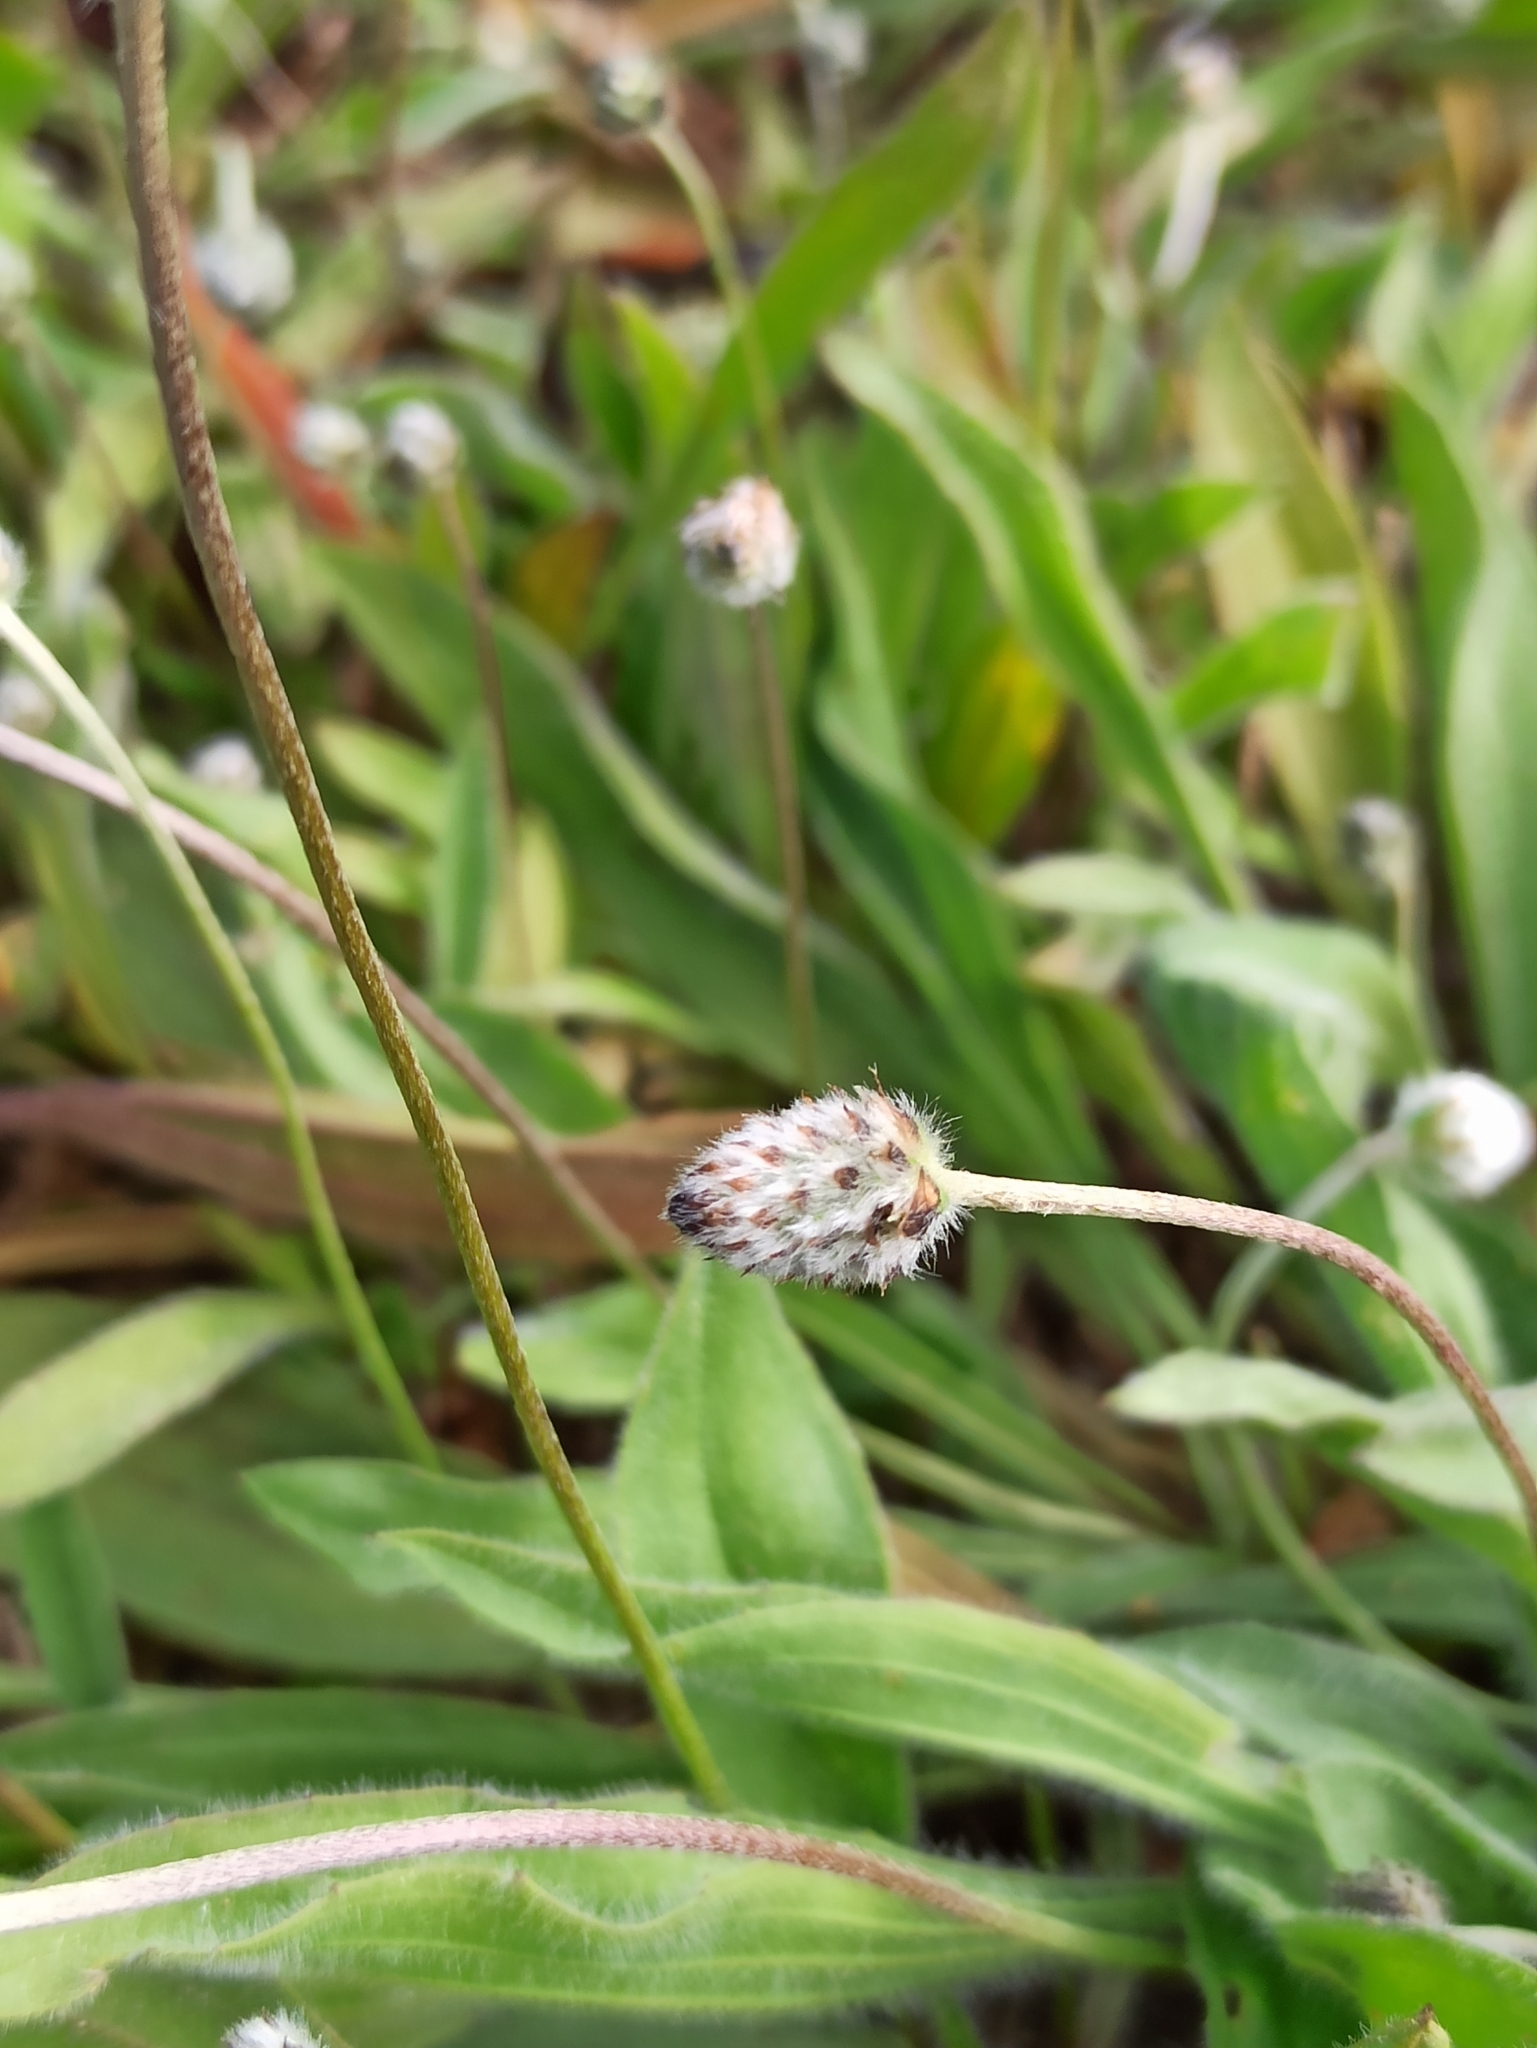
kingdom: Plantae
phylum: Tracheophyta
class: Magnoliopsida
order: Lamiales
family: Plantaginaceae
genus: Plantago
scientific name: Plantago lagopus
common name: Hare-foot plantain
